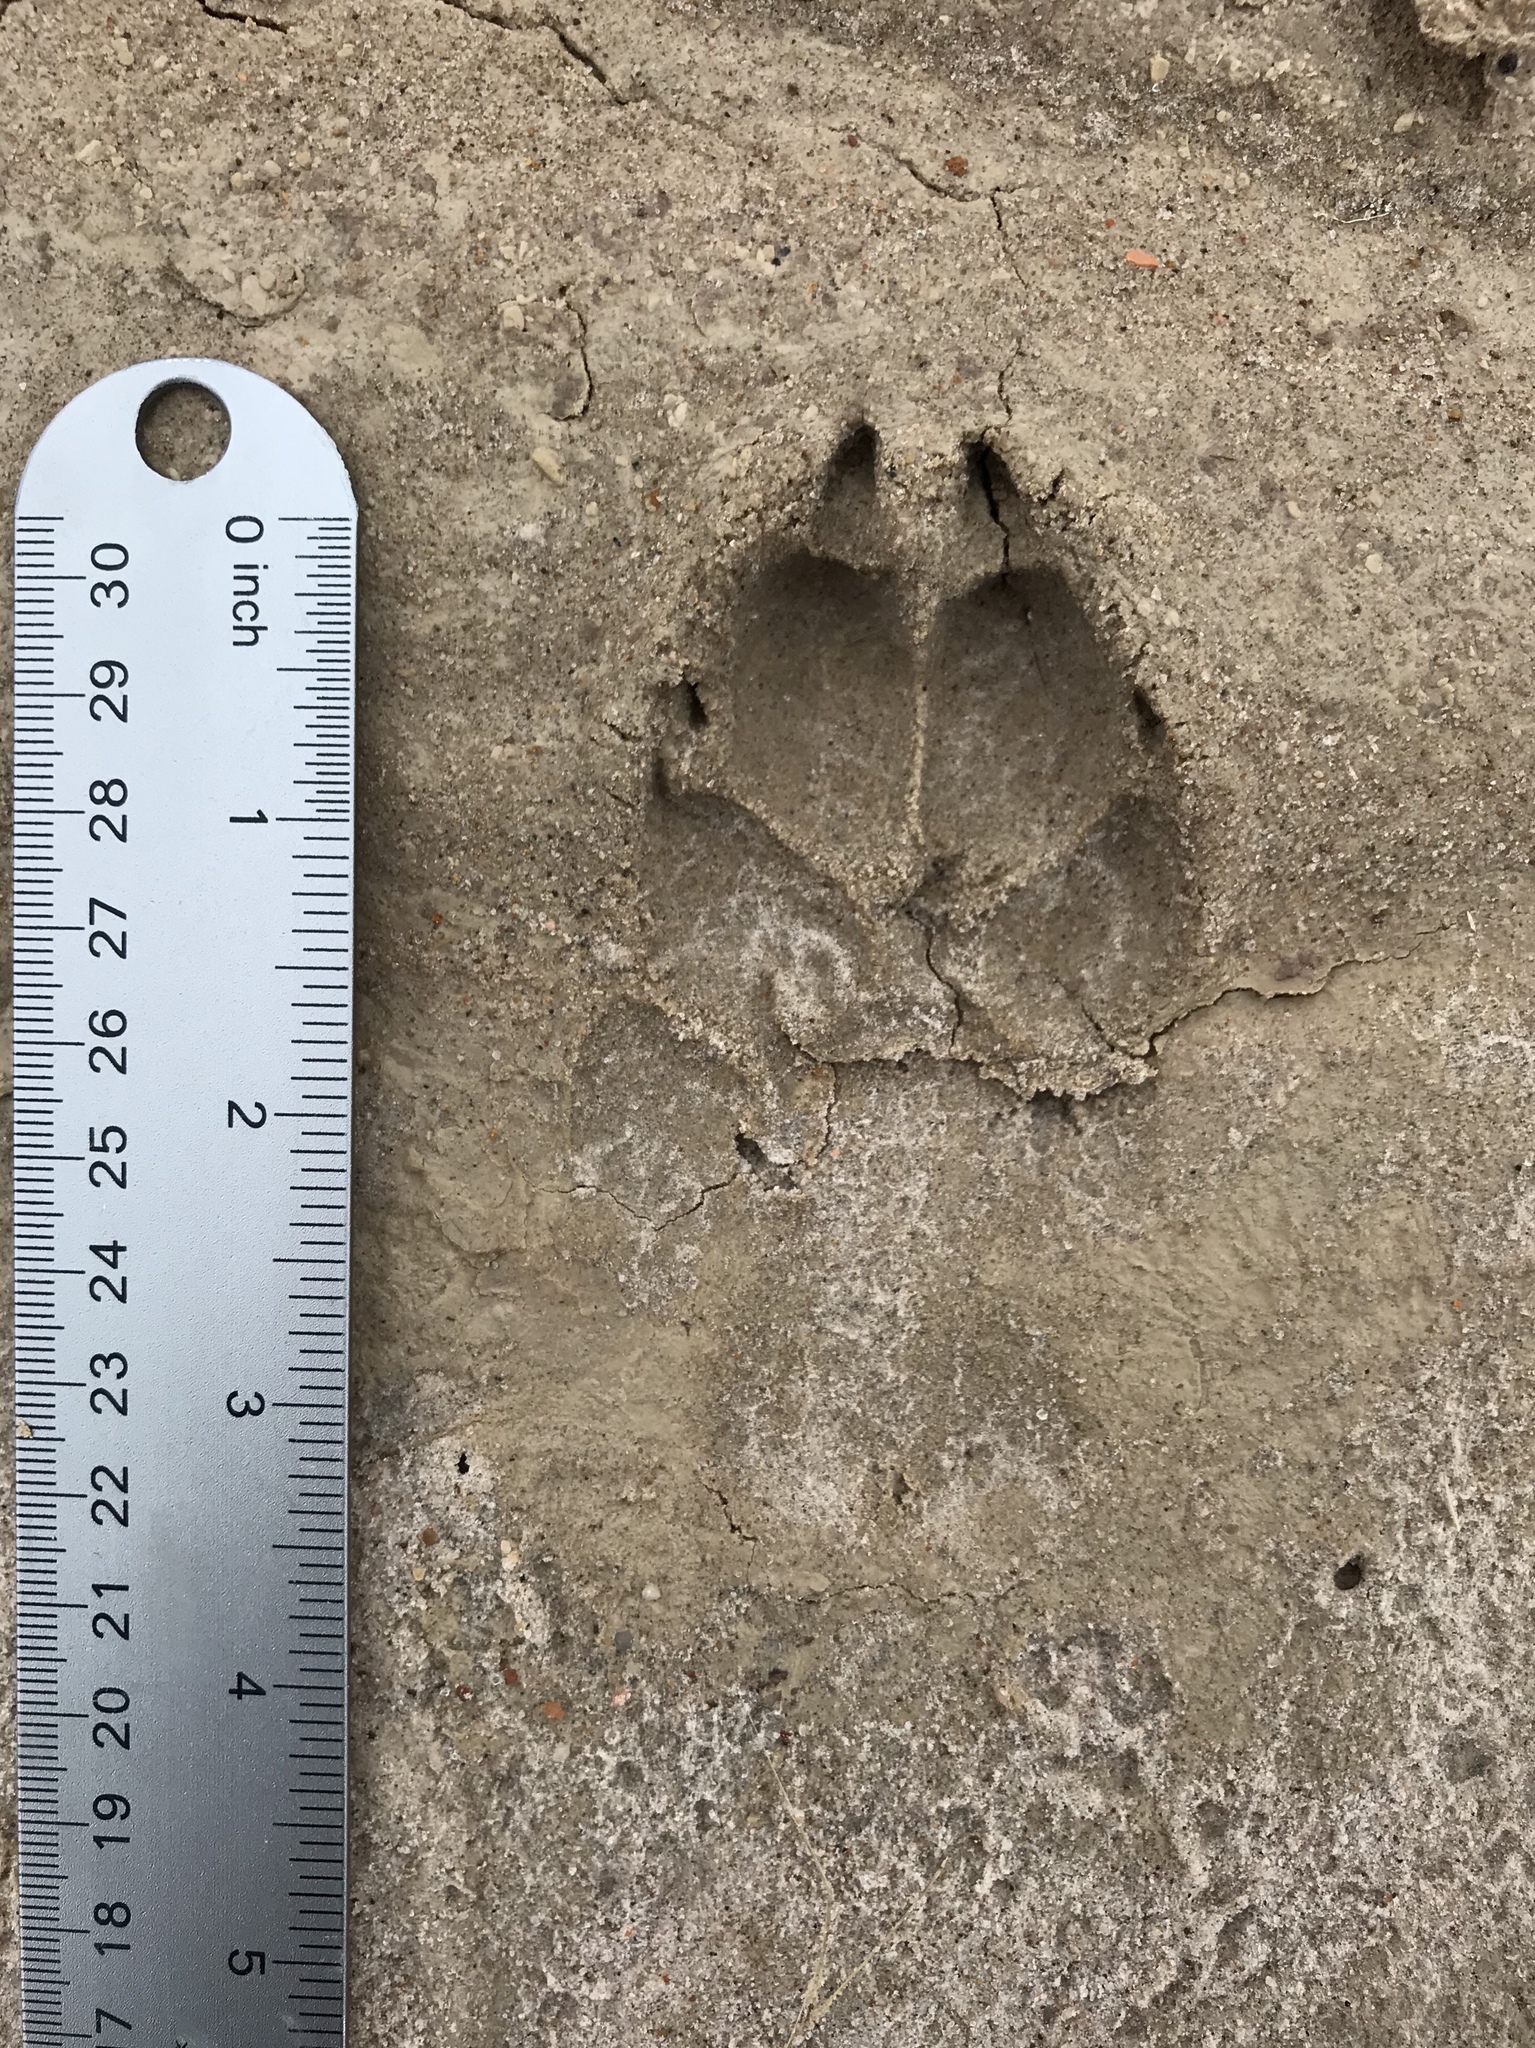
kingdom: Animalia
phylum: Chordata
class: Mammalia
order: Carnivora
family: Canidae
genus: Canis
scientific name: Canis latrans
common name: Coyote
